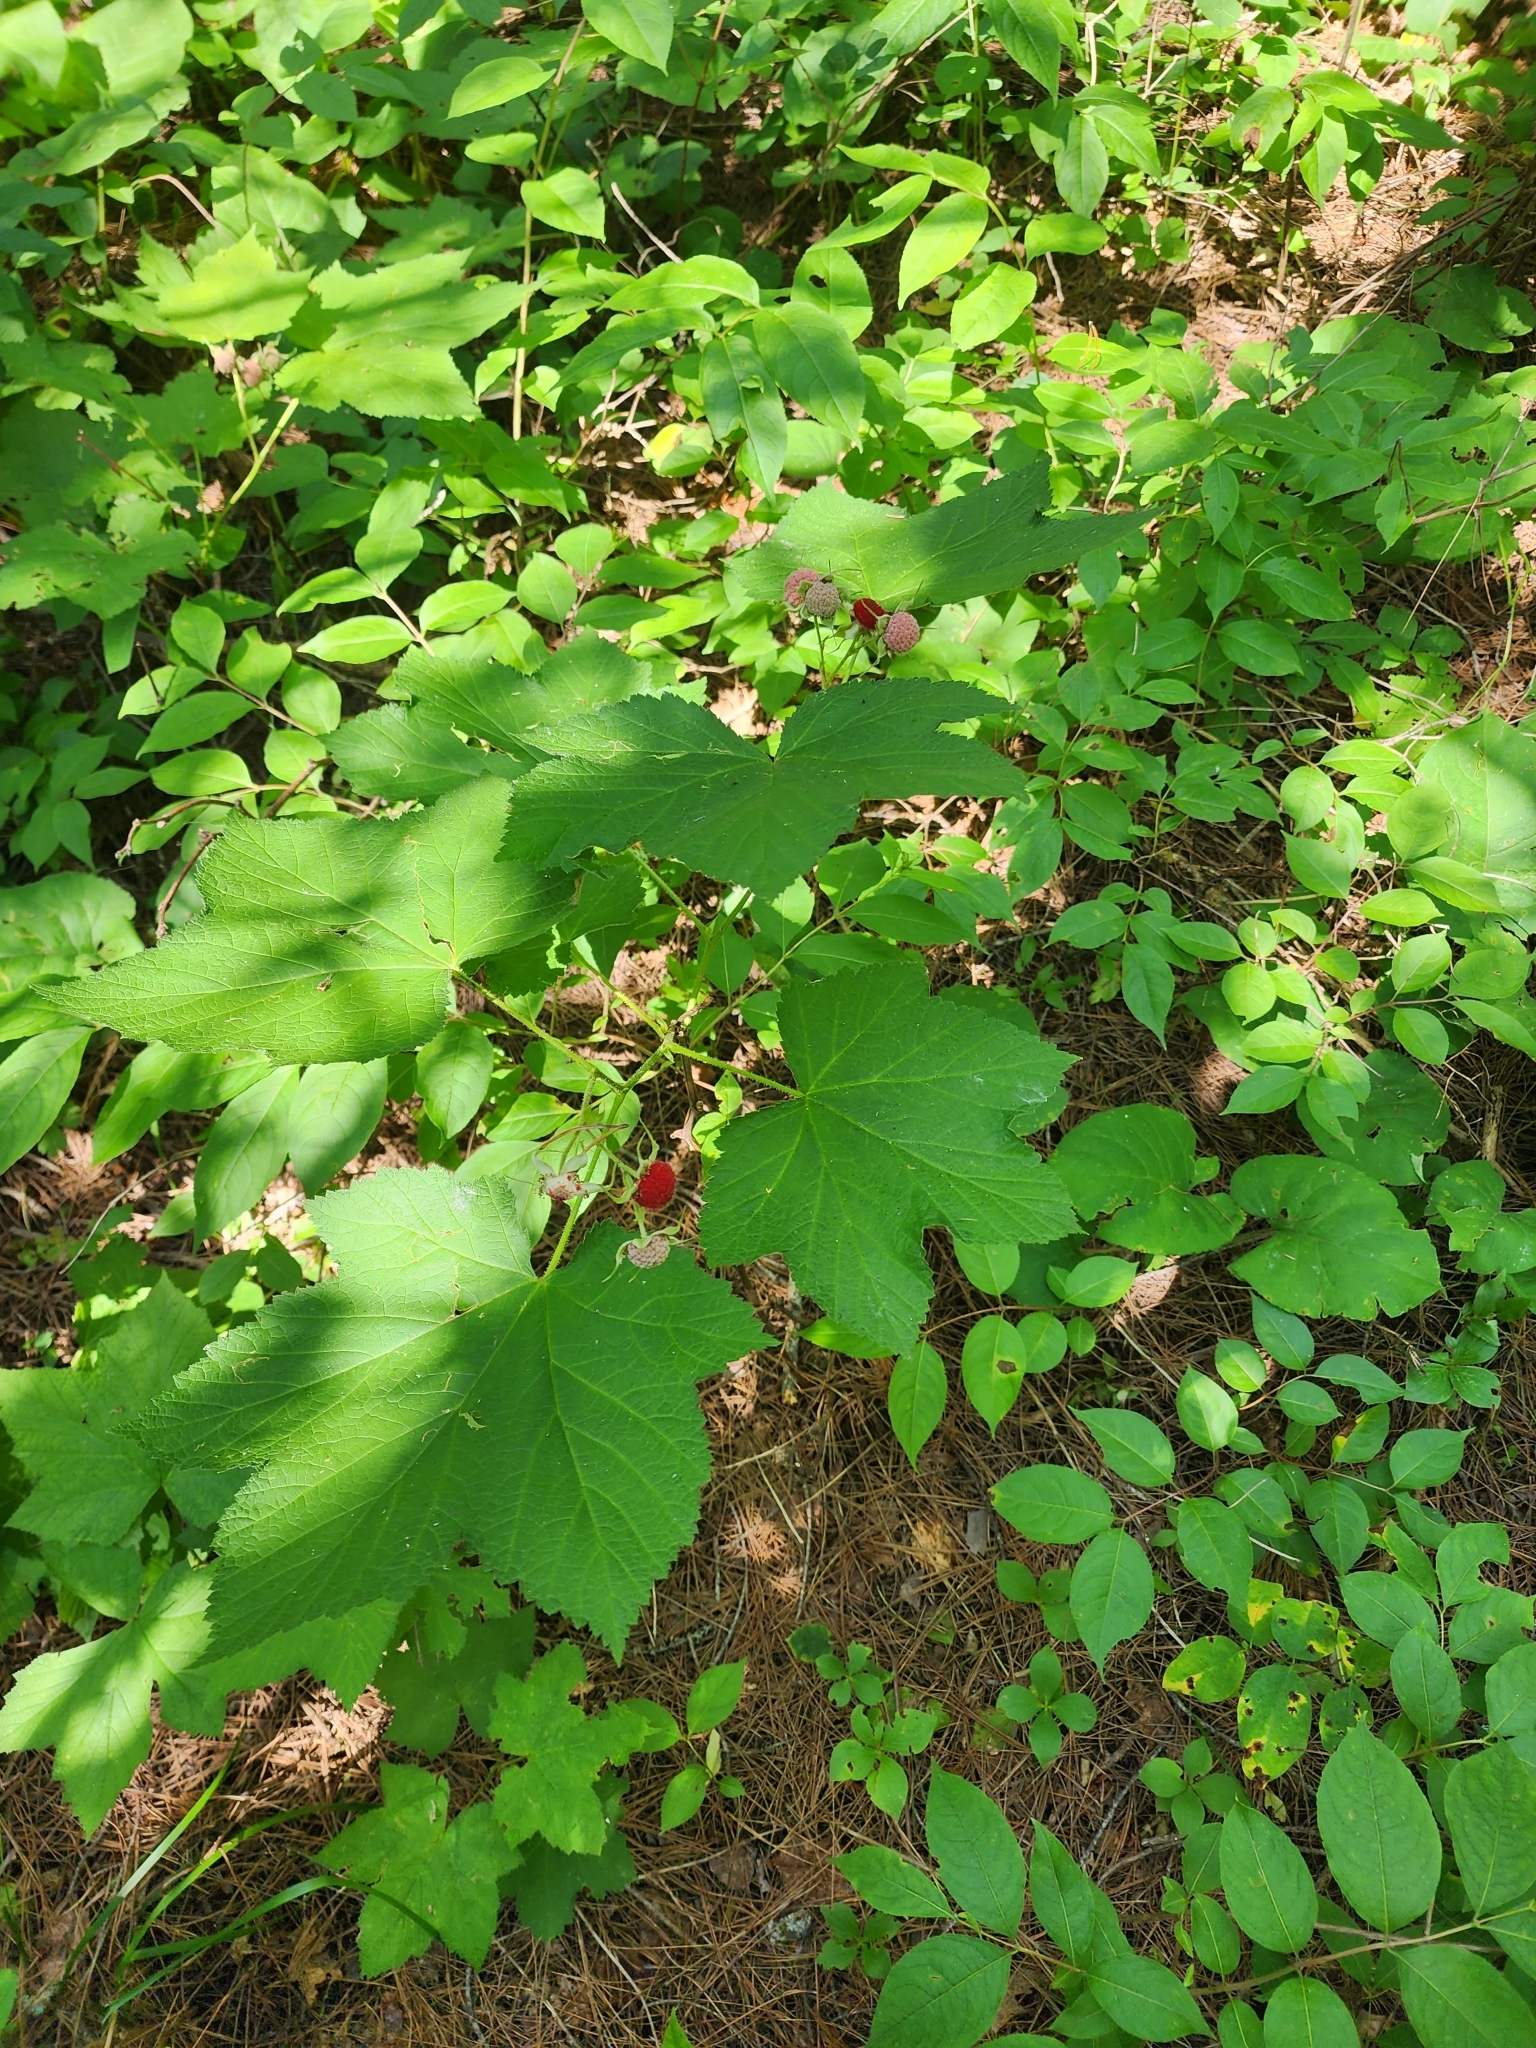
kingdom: Plantae
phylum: Tracheophyta
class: Magnoliopsida
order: Rosales
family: Rosaceae
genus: Rubus
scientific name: Rubus parviflorus
